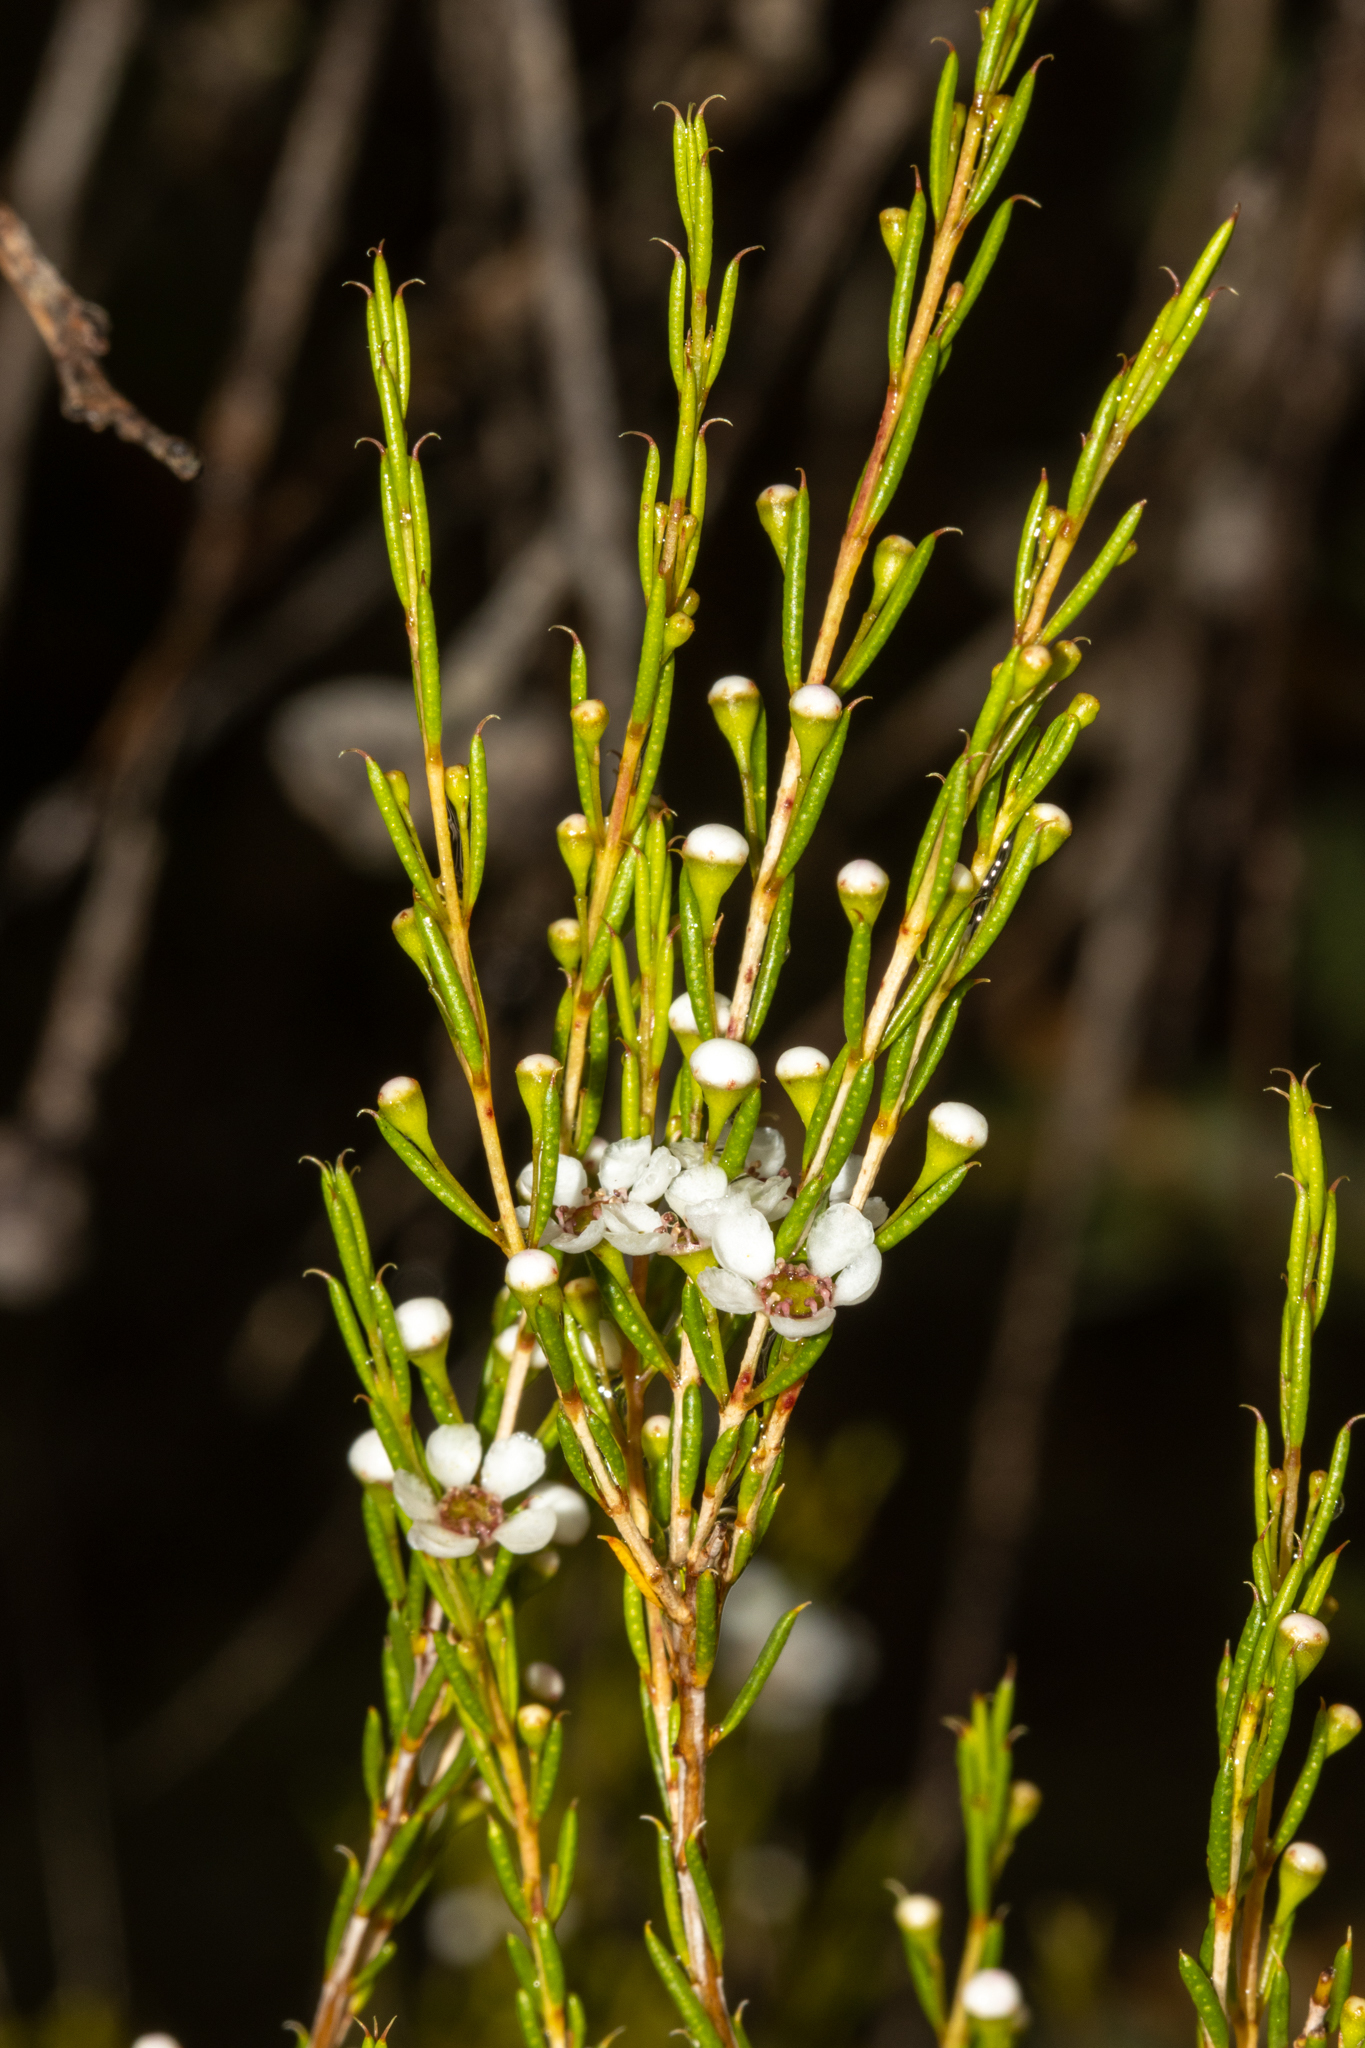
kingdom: Plantae
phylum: Tracheophyta
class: Magnoliopsida
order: Myrtales
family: Myrtaceae
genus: Hysterobaeckea
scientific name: Hysterobaeckea behrii
